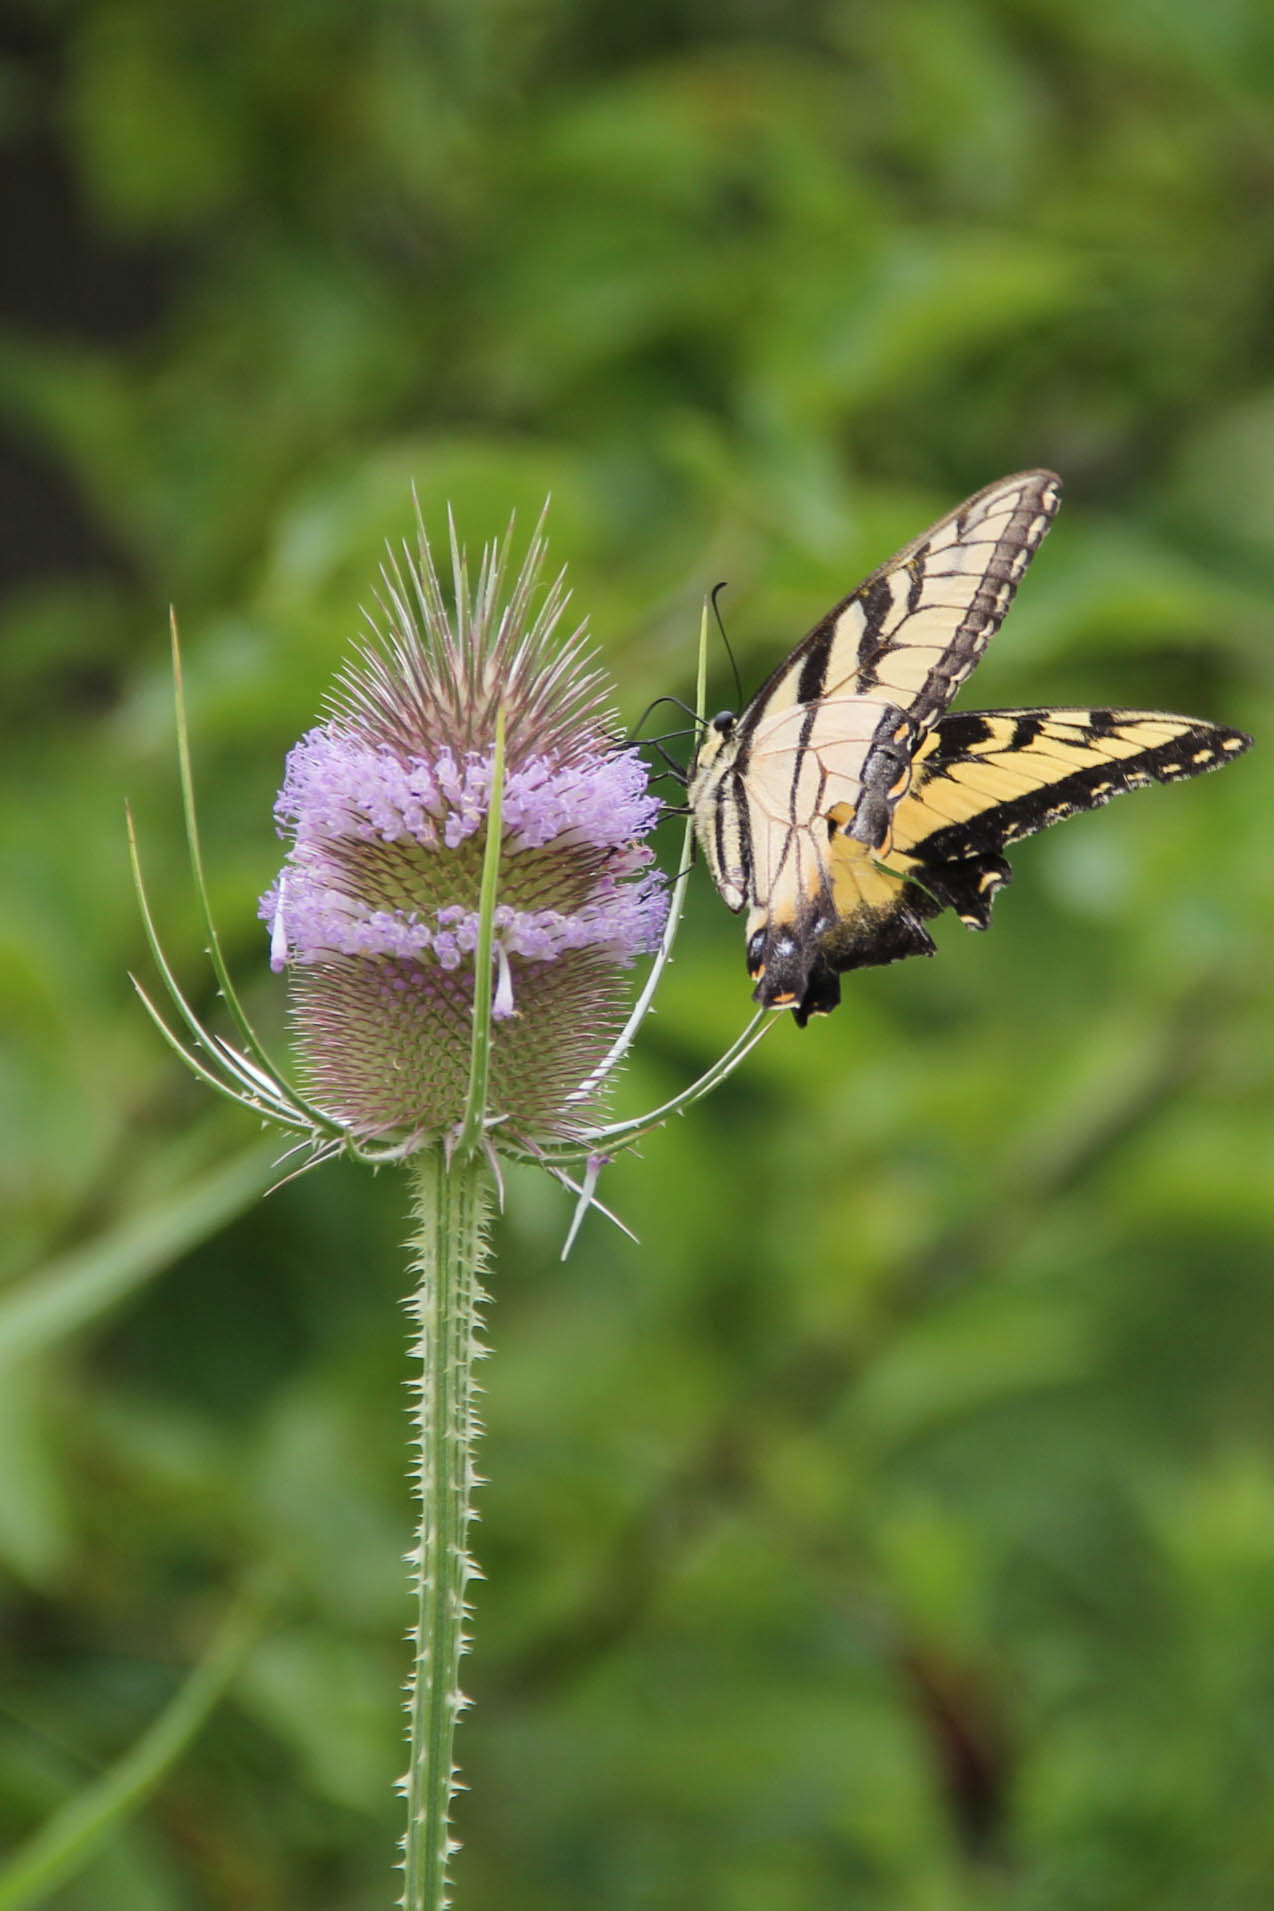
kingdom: Animalia
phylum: Arthropoda
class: Insecta
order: Lepidoptera
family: Papilionidae
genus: Papilio
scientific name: Papilio glaucus
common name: Tiger swallowtail
